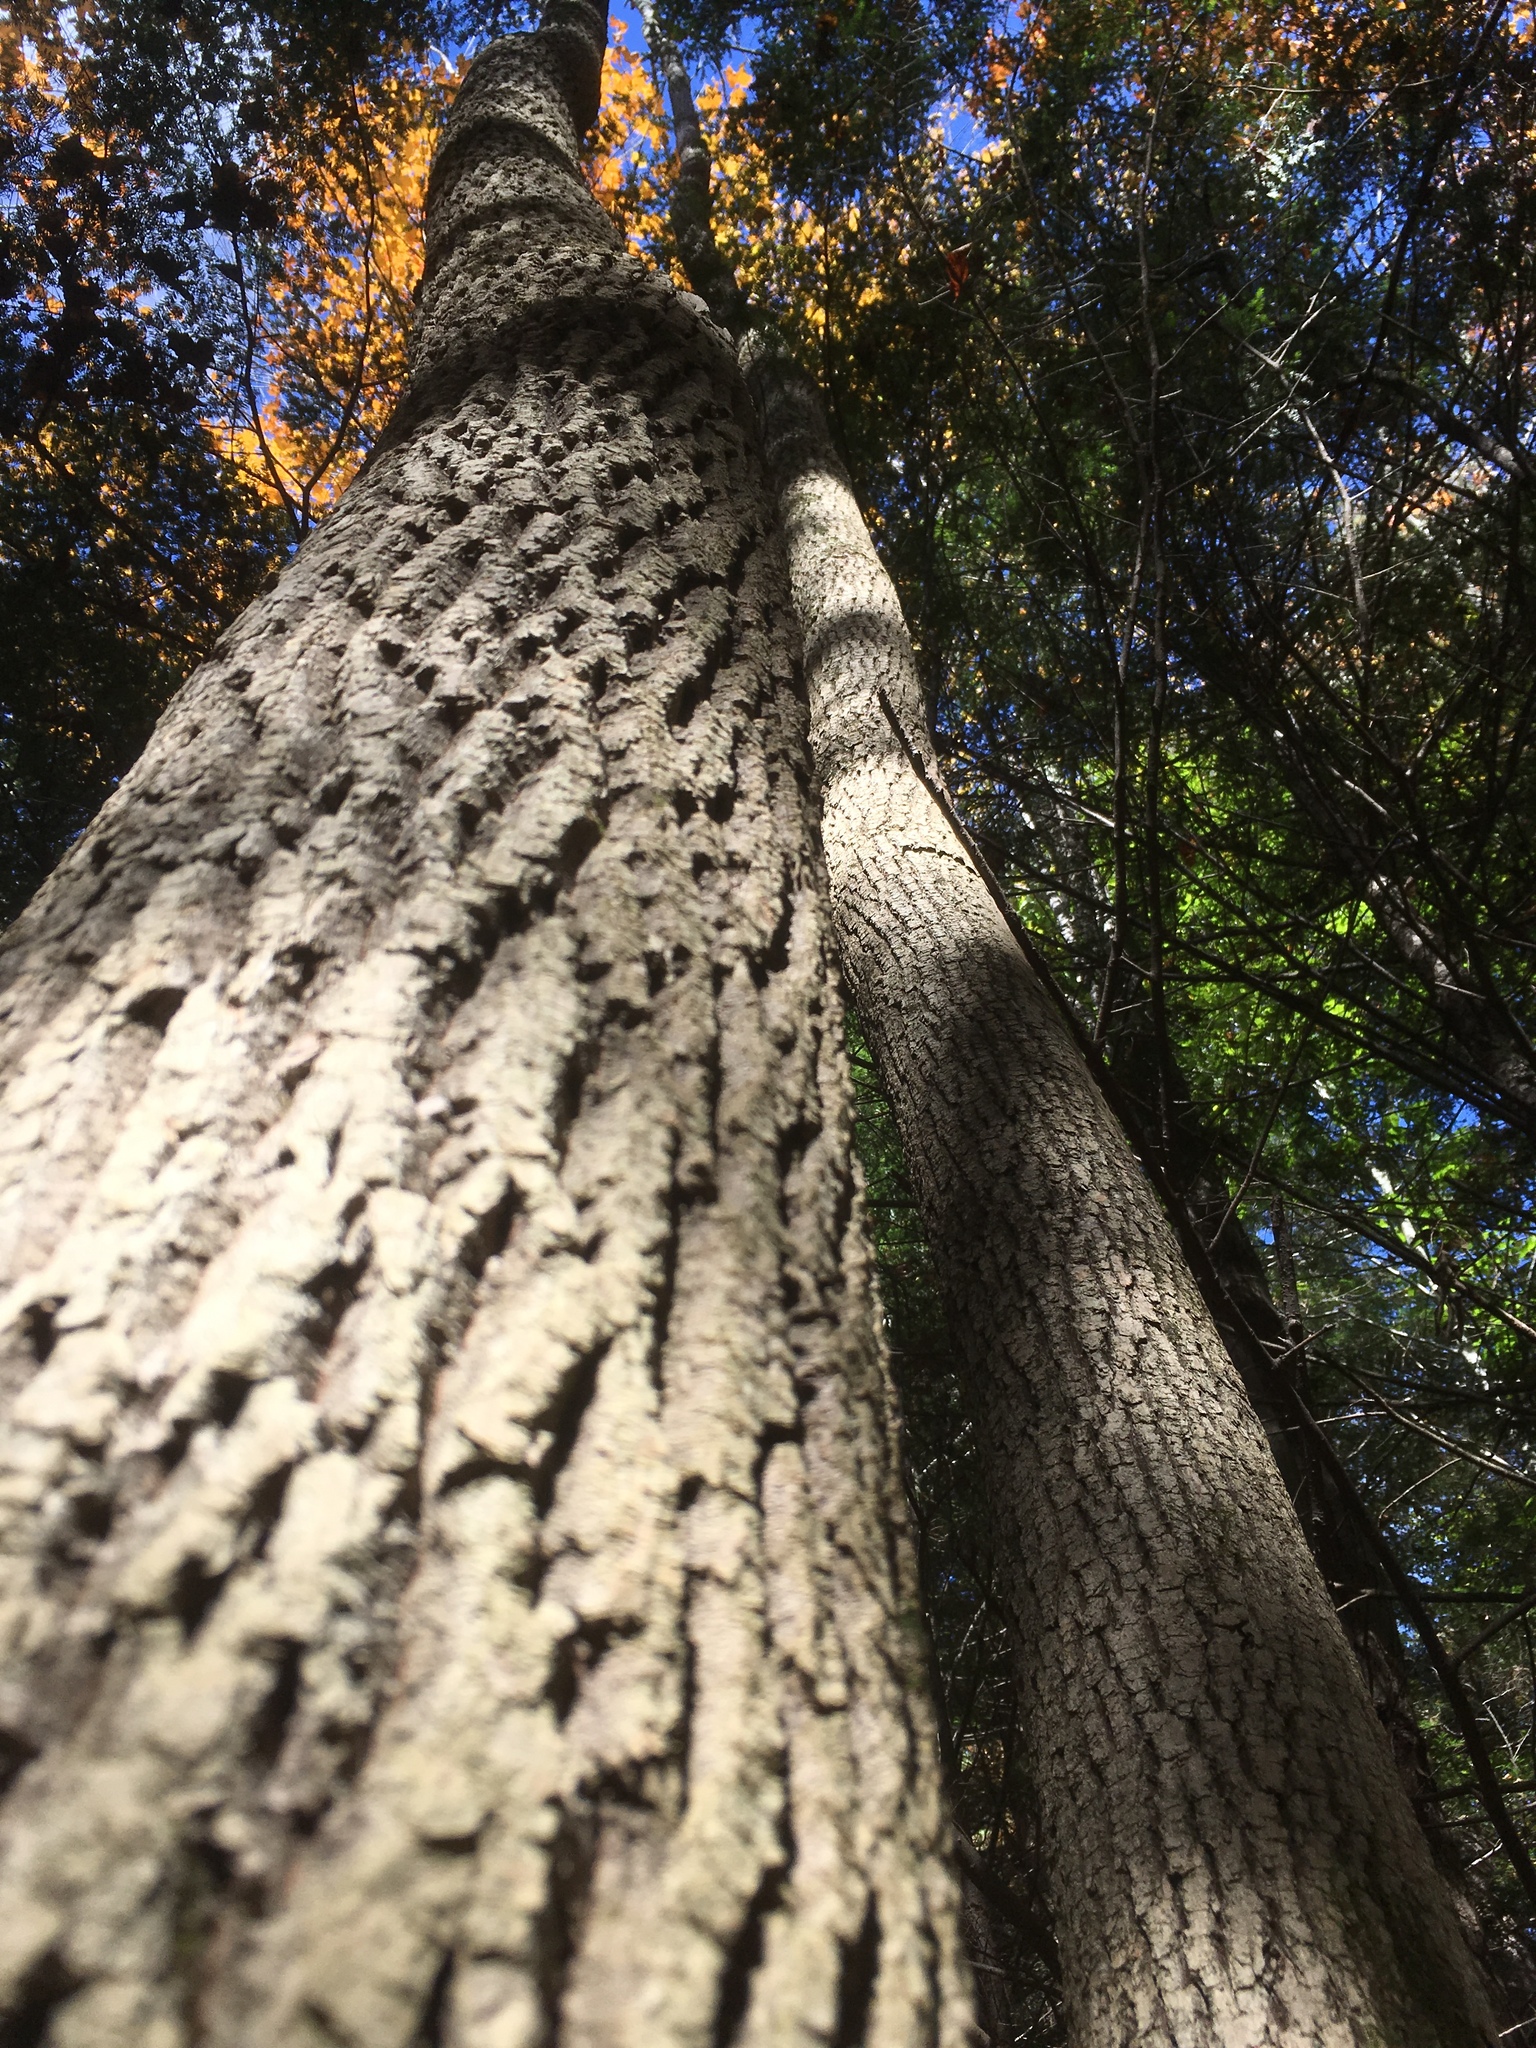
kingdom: Plantae
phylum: Tracheophyta
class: Magnoliopsida
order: Lamiales
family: Oleaceae
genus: Fraxinus
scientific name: Fraxinus americana
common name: White ash
